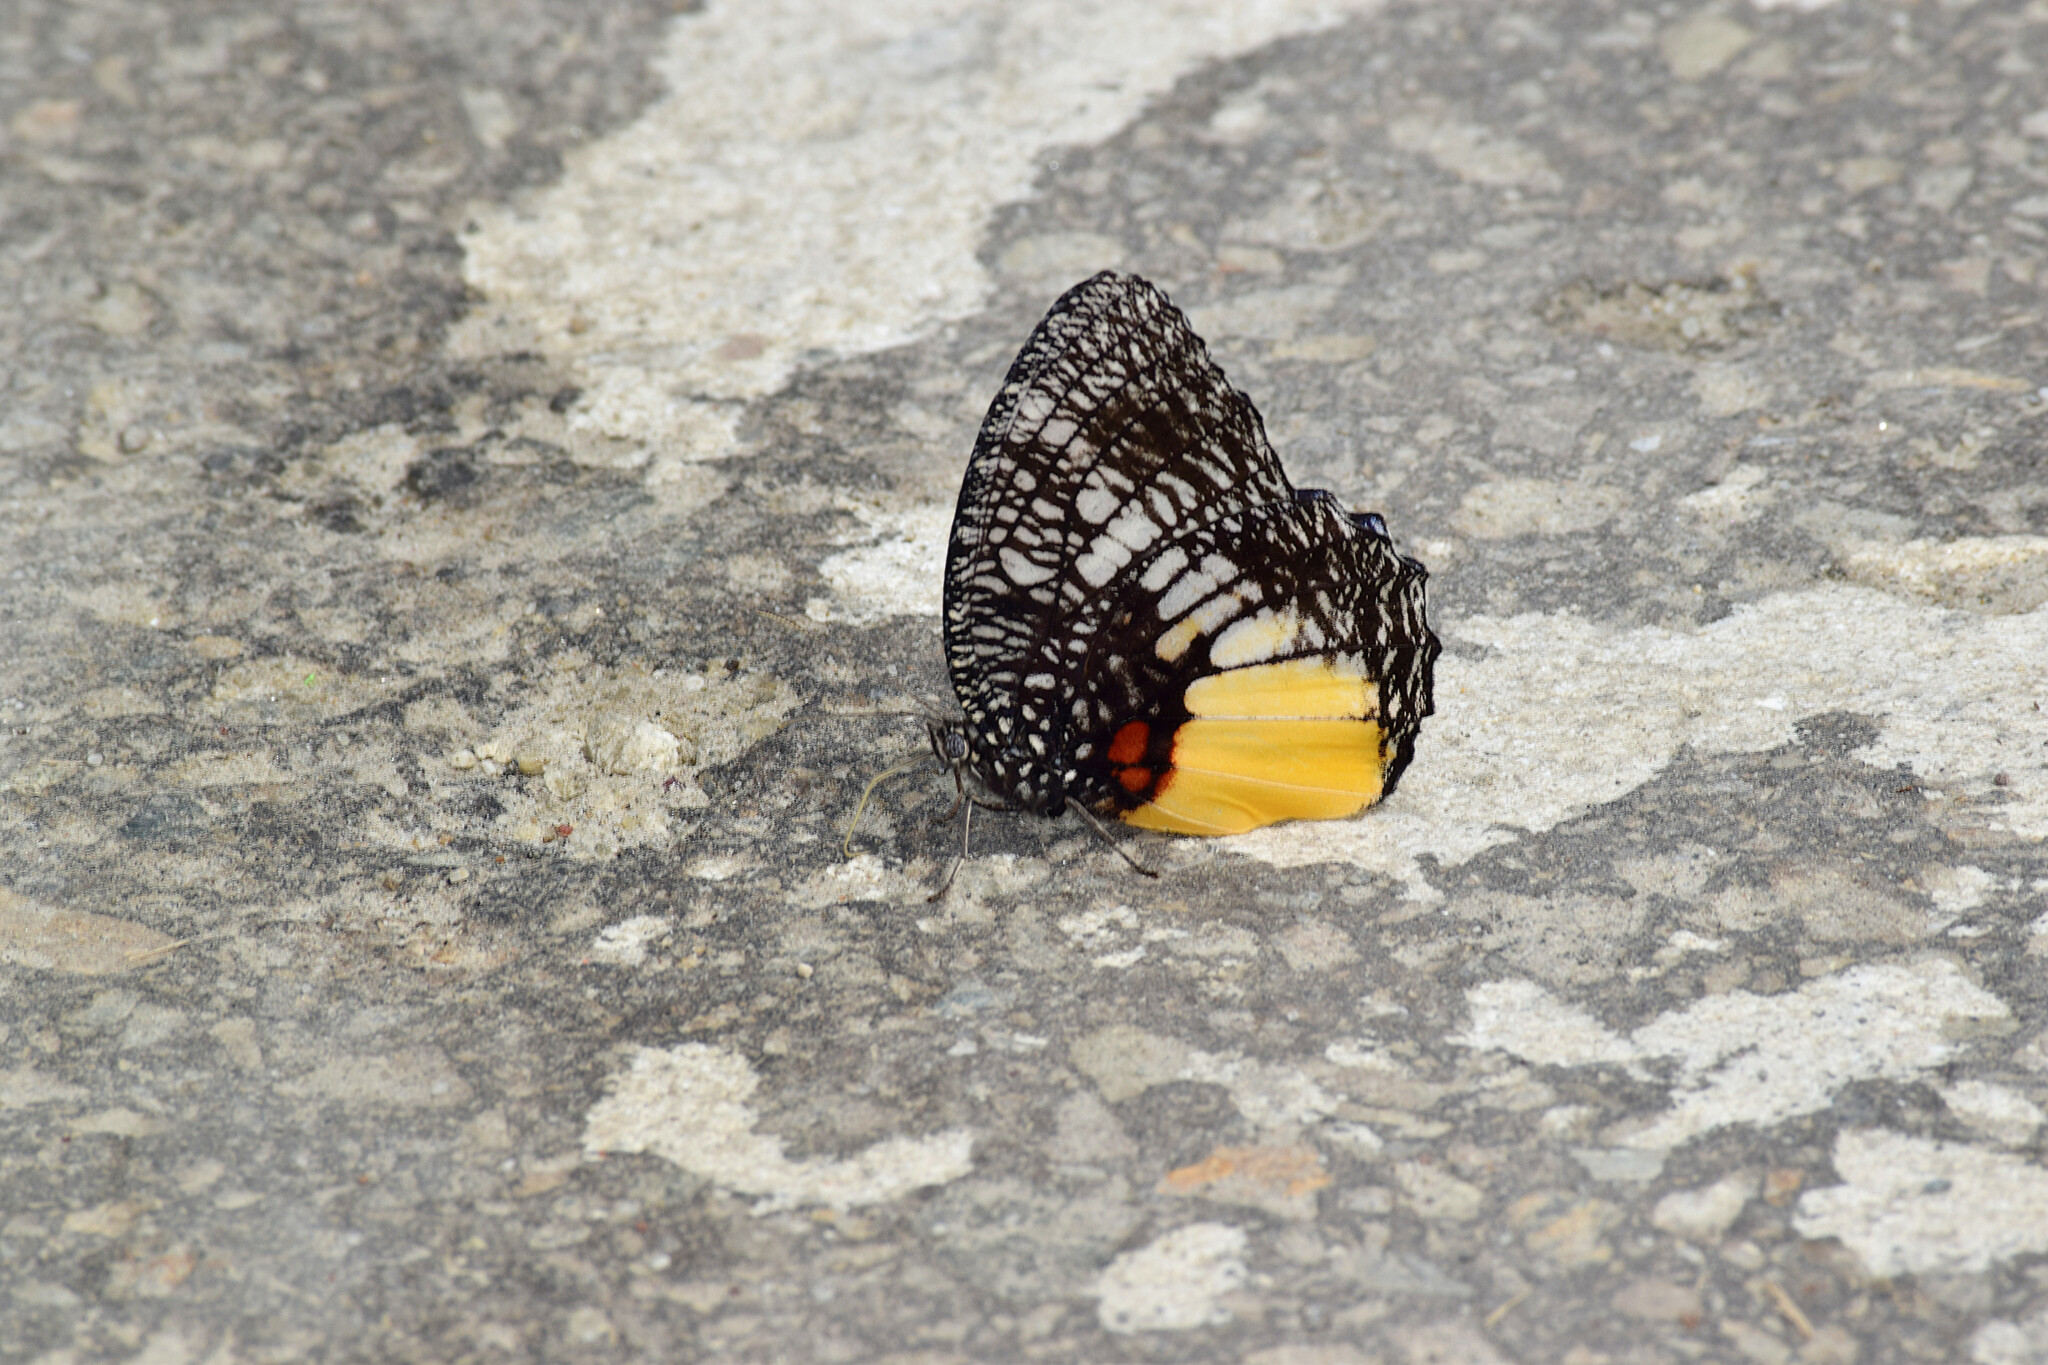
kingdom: Animalia
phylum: Arthropoda
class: Insecta
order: Lepidoptera
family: Nymphalidae
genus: Elymnias
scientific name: Elymnias vasudeva
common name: Jezebel palmfly
